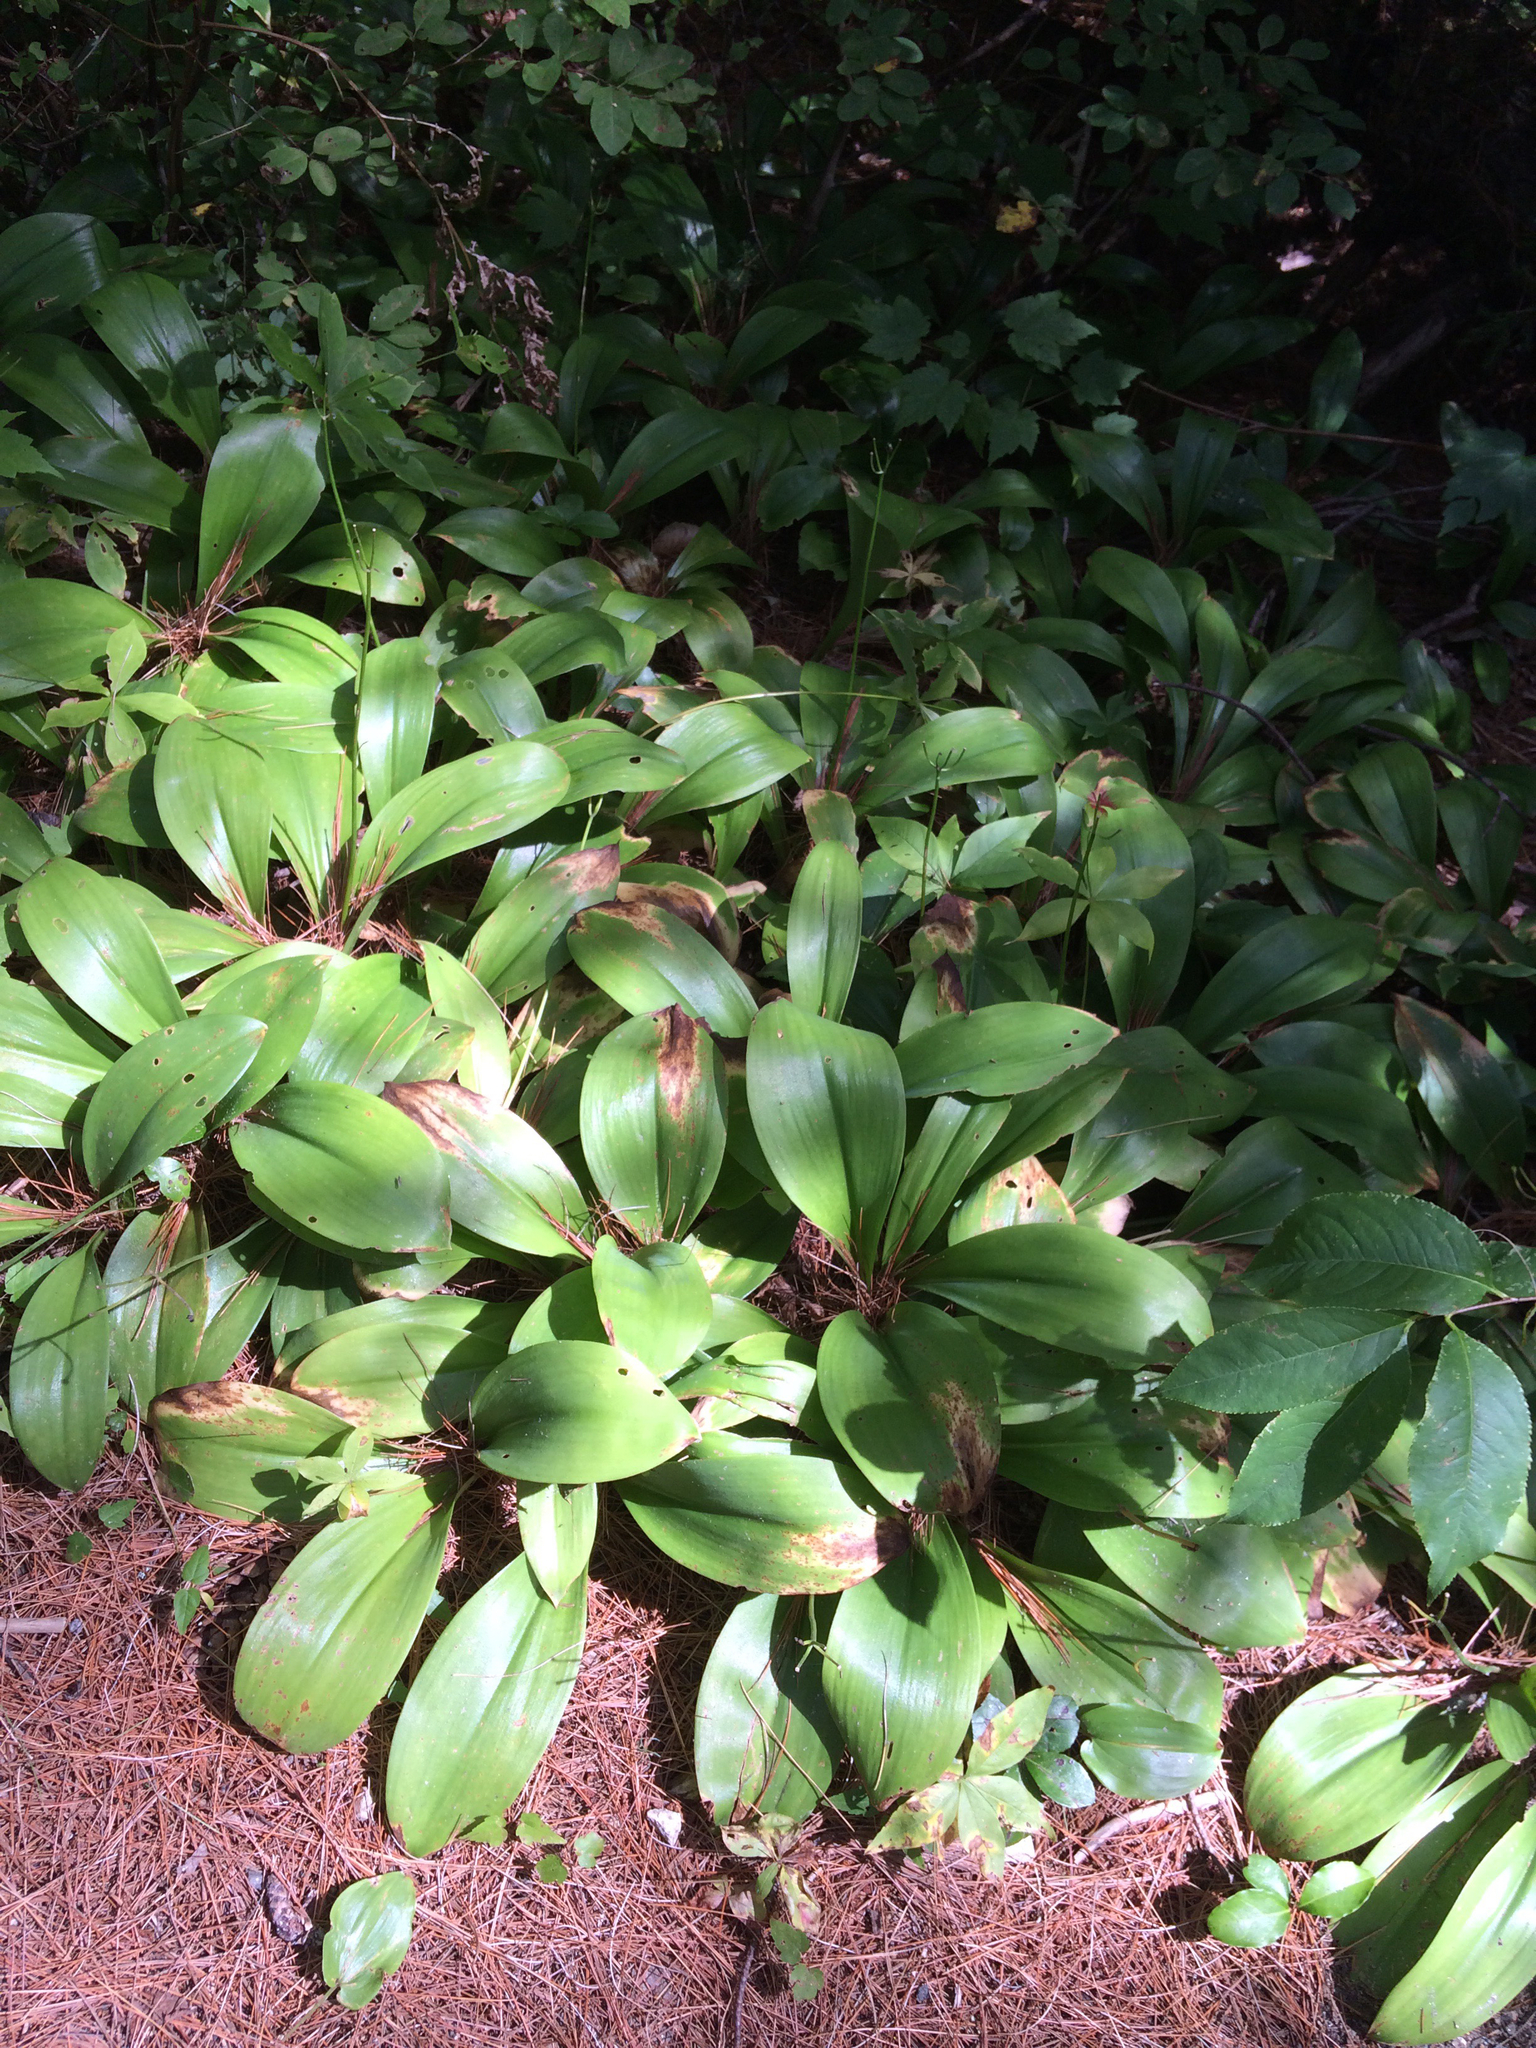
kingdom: Plantae
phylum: Tracheophyta
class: Liliopsida
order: Liliales
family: Liliaceae
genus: Clintonia
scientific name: Clintonia borealis
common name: Yellow clintonia
